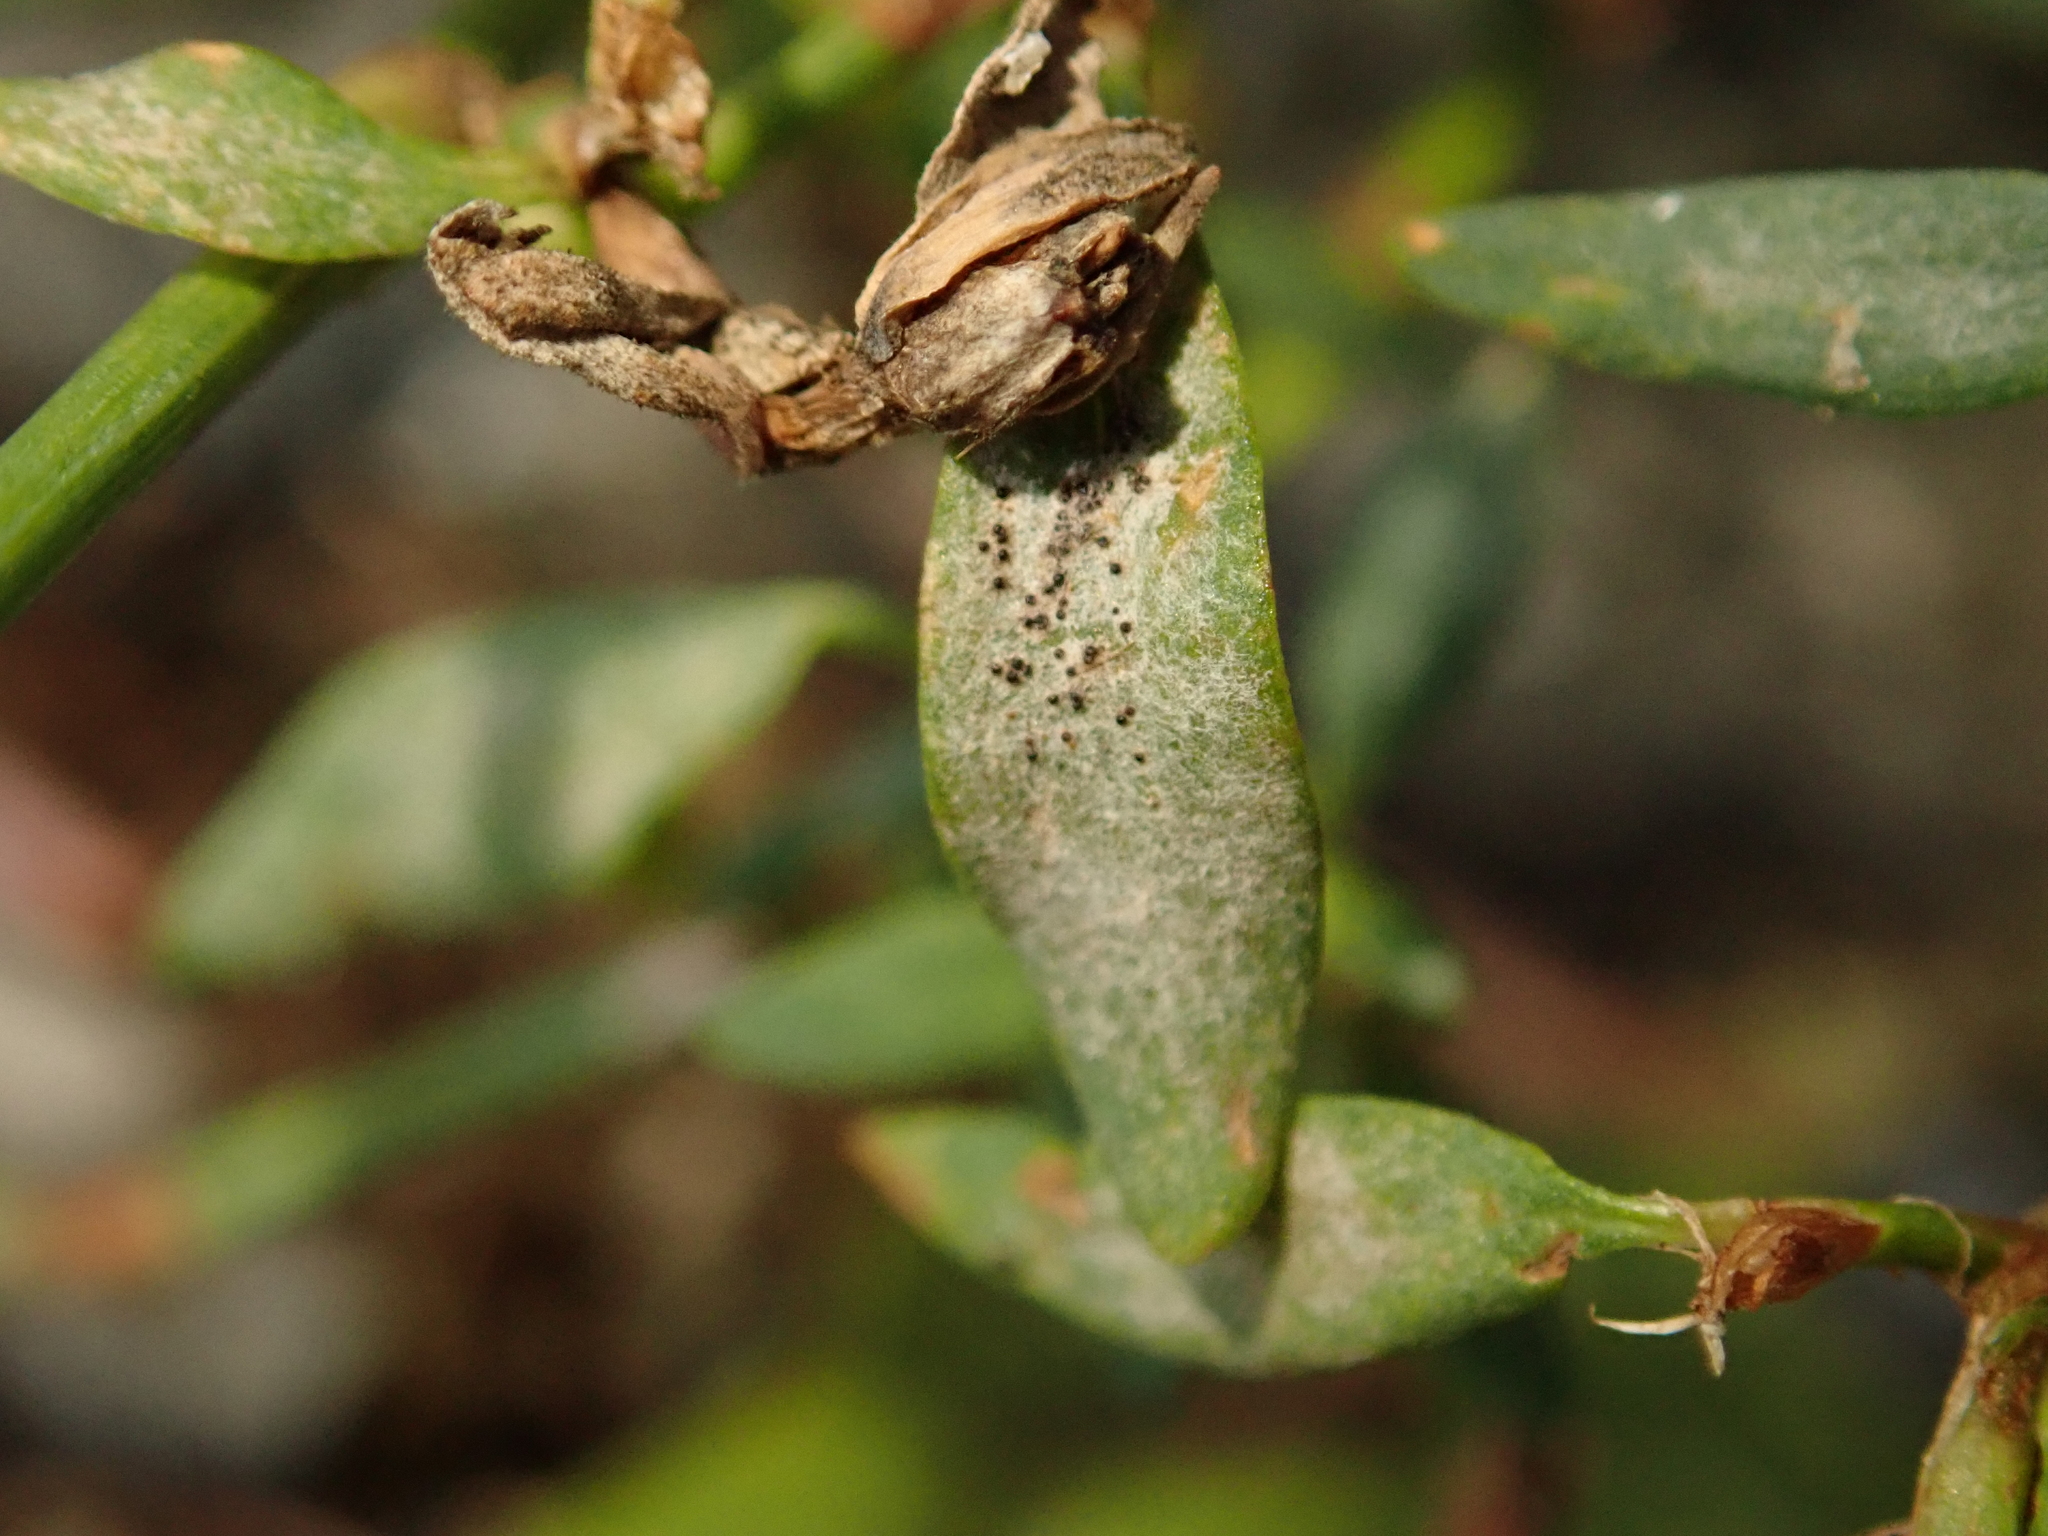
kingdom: Fungi
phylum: Ascomycota
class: Leotiomycetes
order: Helotiales
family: Erysiphaceae
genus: Erysiphe
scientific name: Erysiphe polygoni
